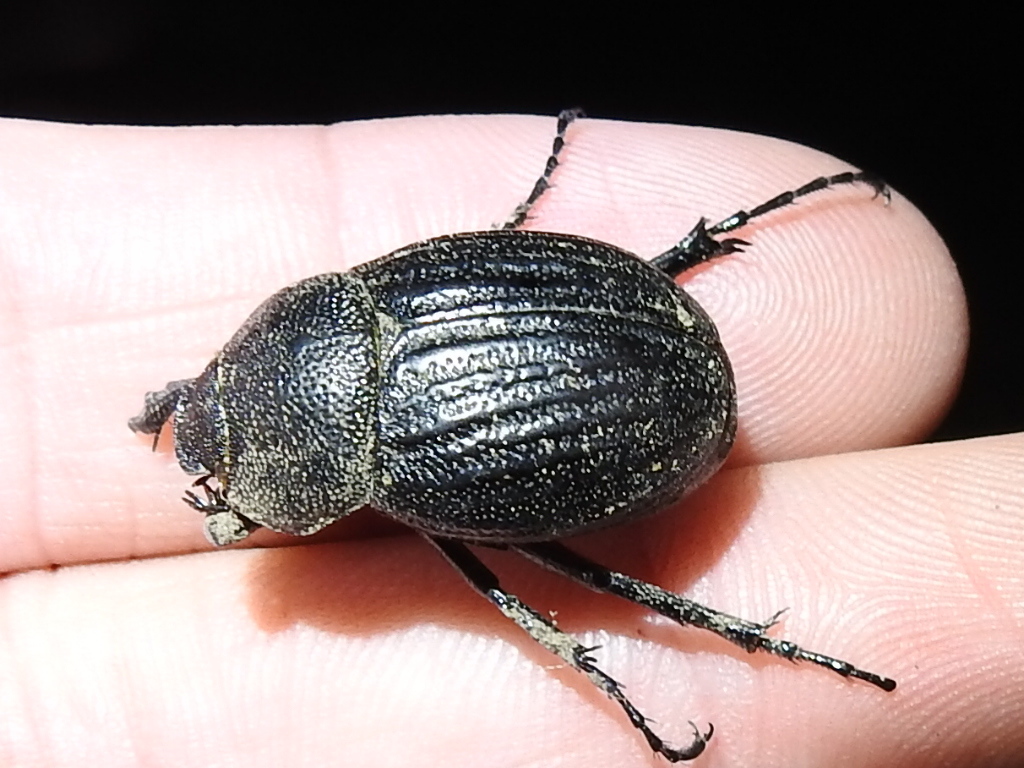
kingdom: Animalia
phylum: Arthropoda
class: Insecta
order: Coleoptera
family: Scarabaeidae
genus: Phyllophaga
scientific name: Phyllophaga cribrosa
